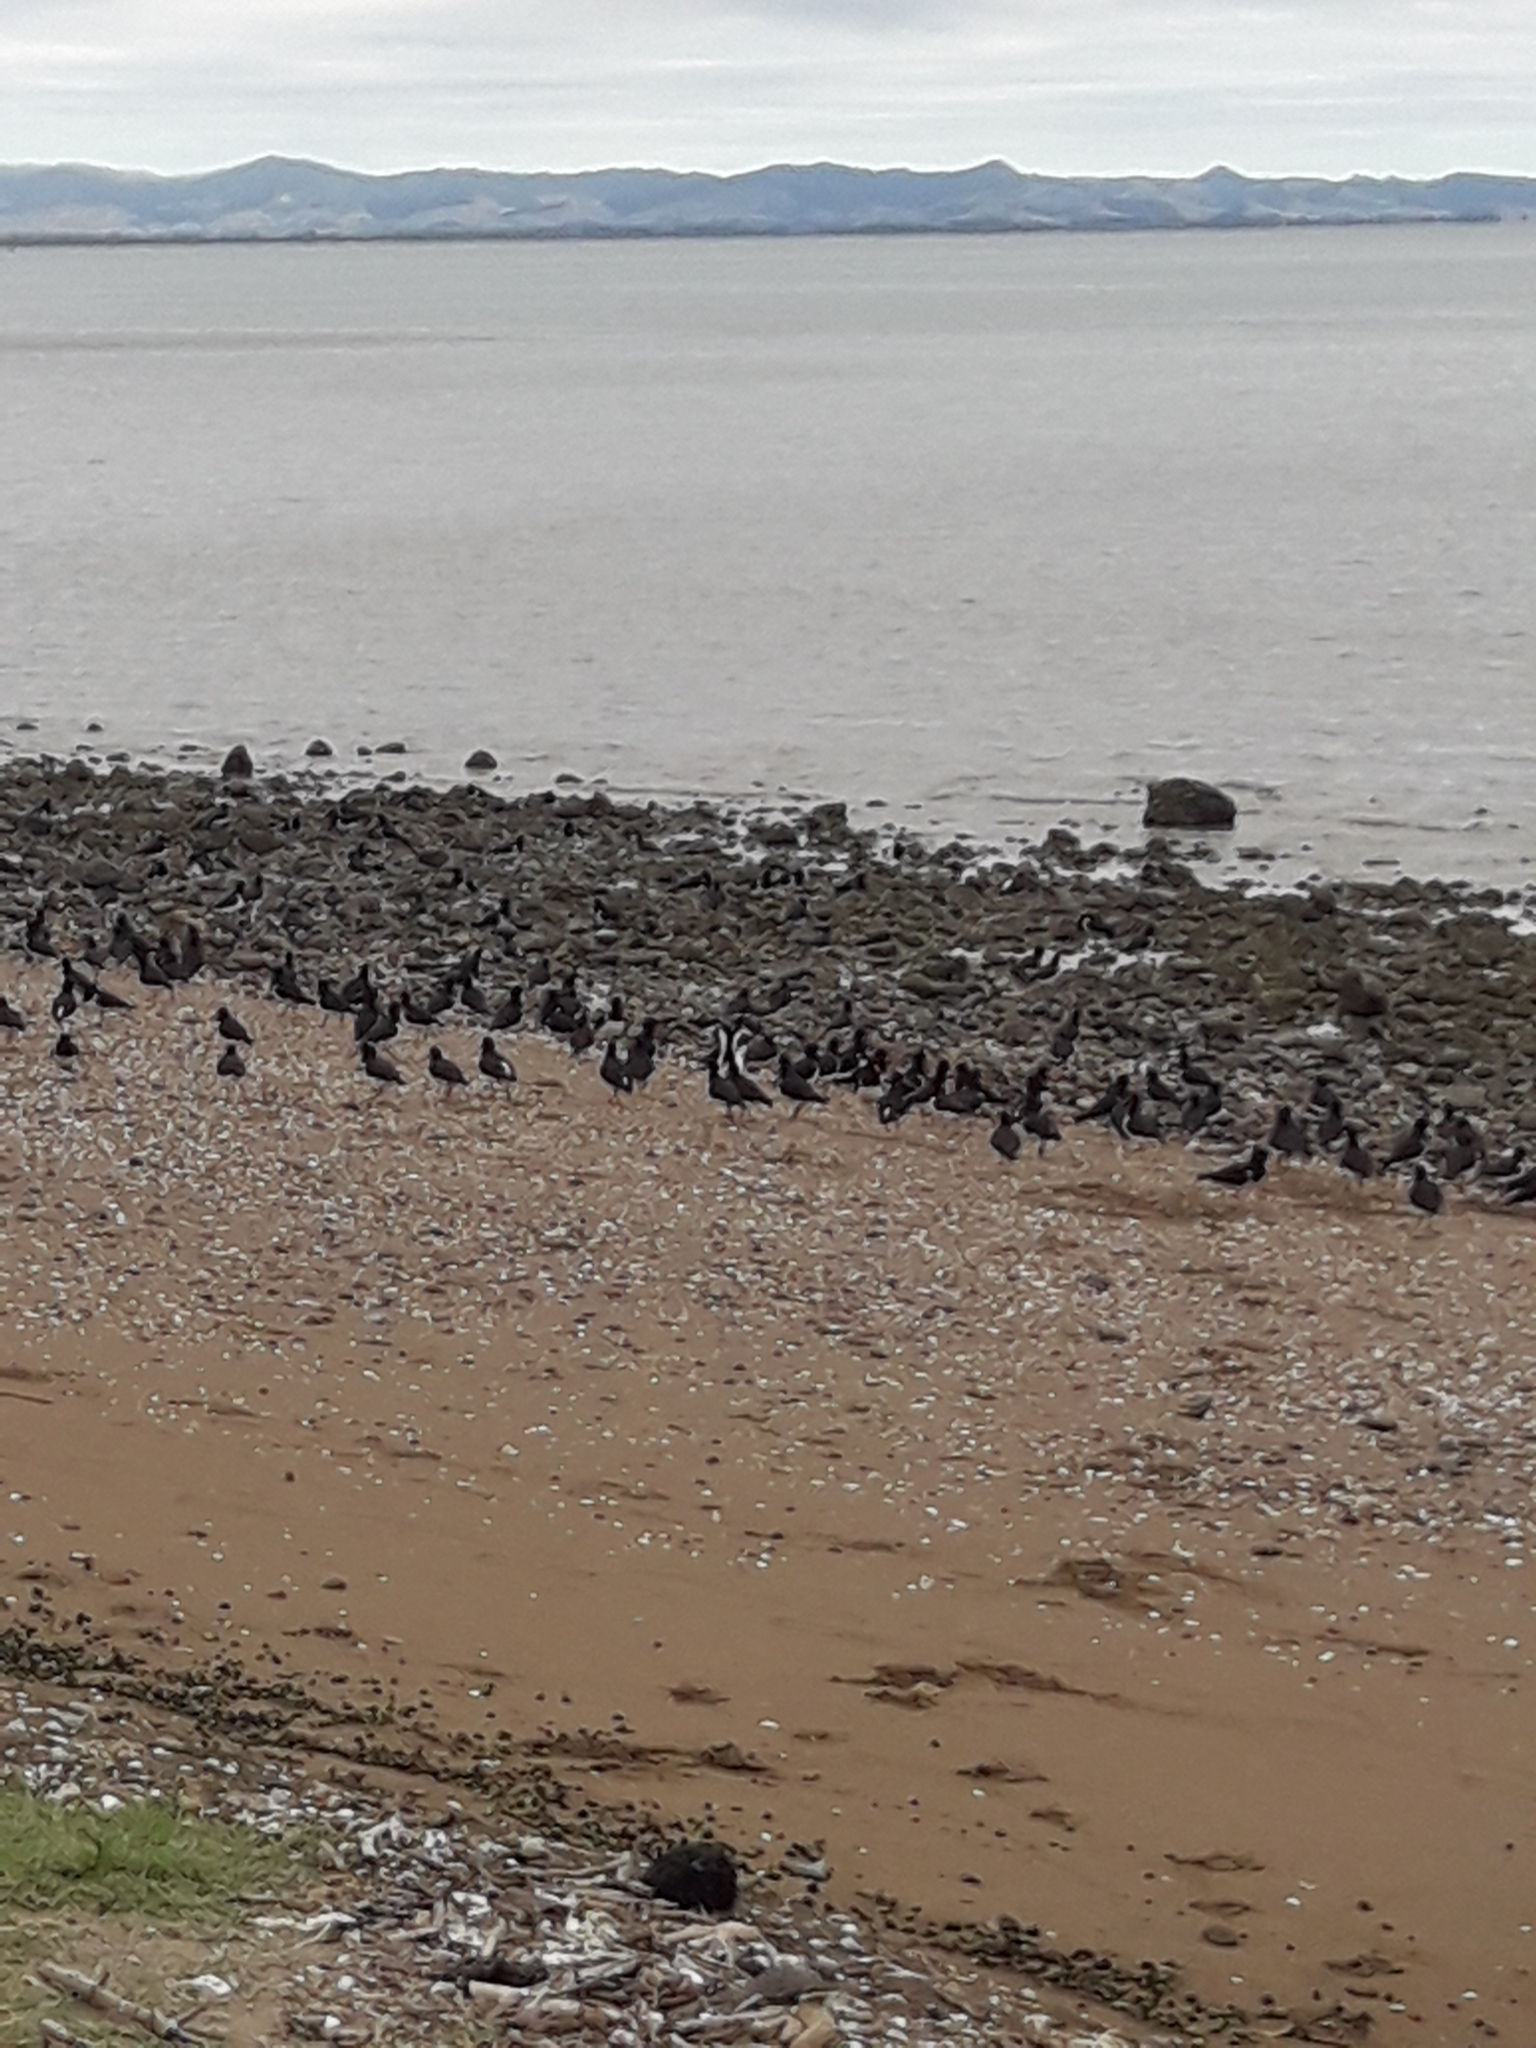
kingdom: Animalia
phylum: Chordata
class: Aves
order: Charadriiformes
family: Haematopodidae
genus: Haematopus
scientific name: Haematopus finschi
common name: South island oystercatcher
